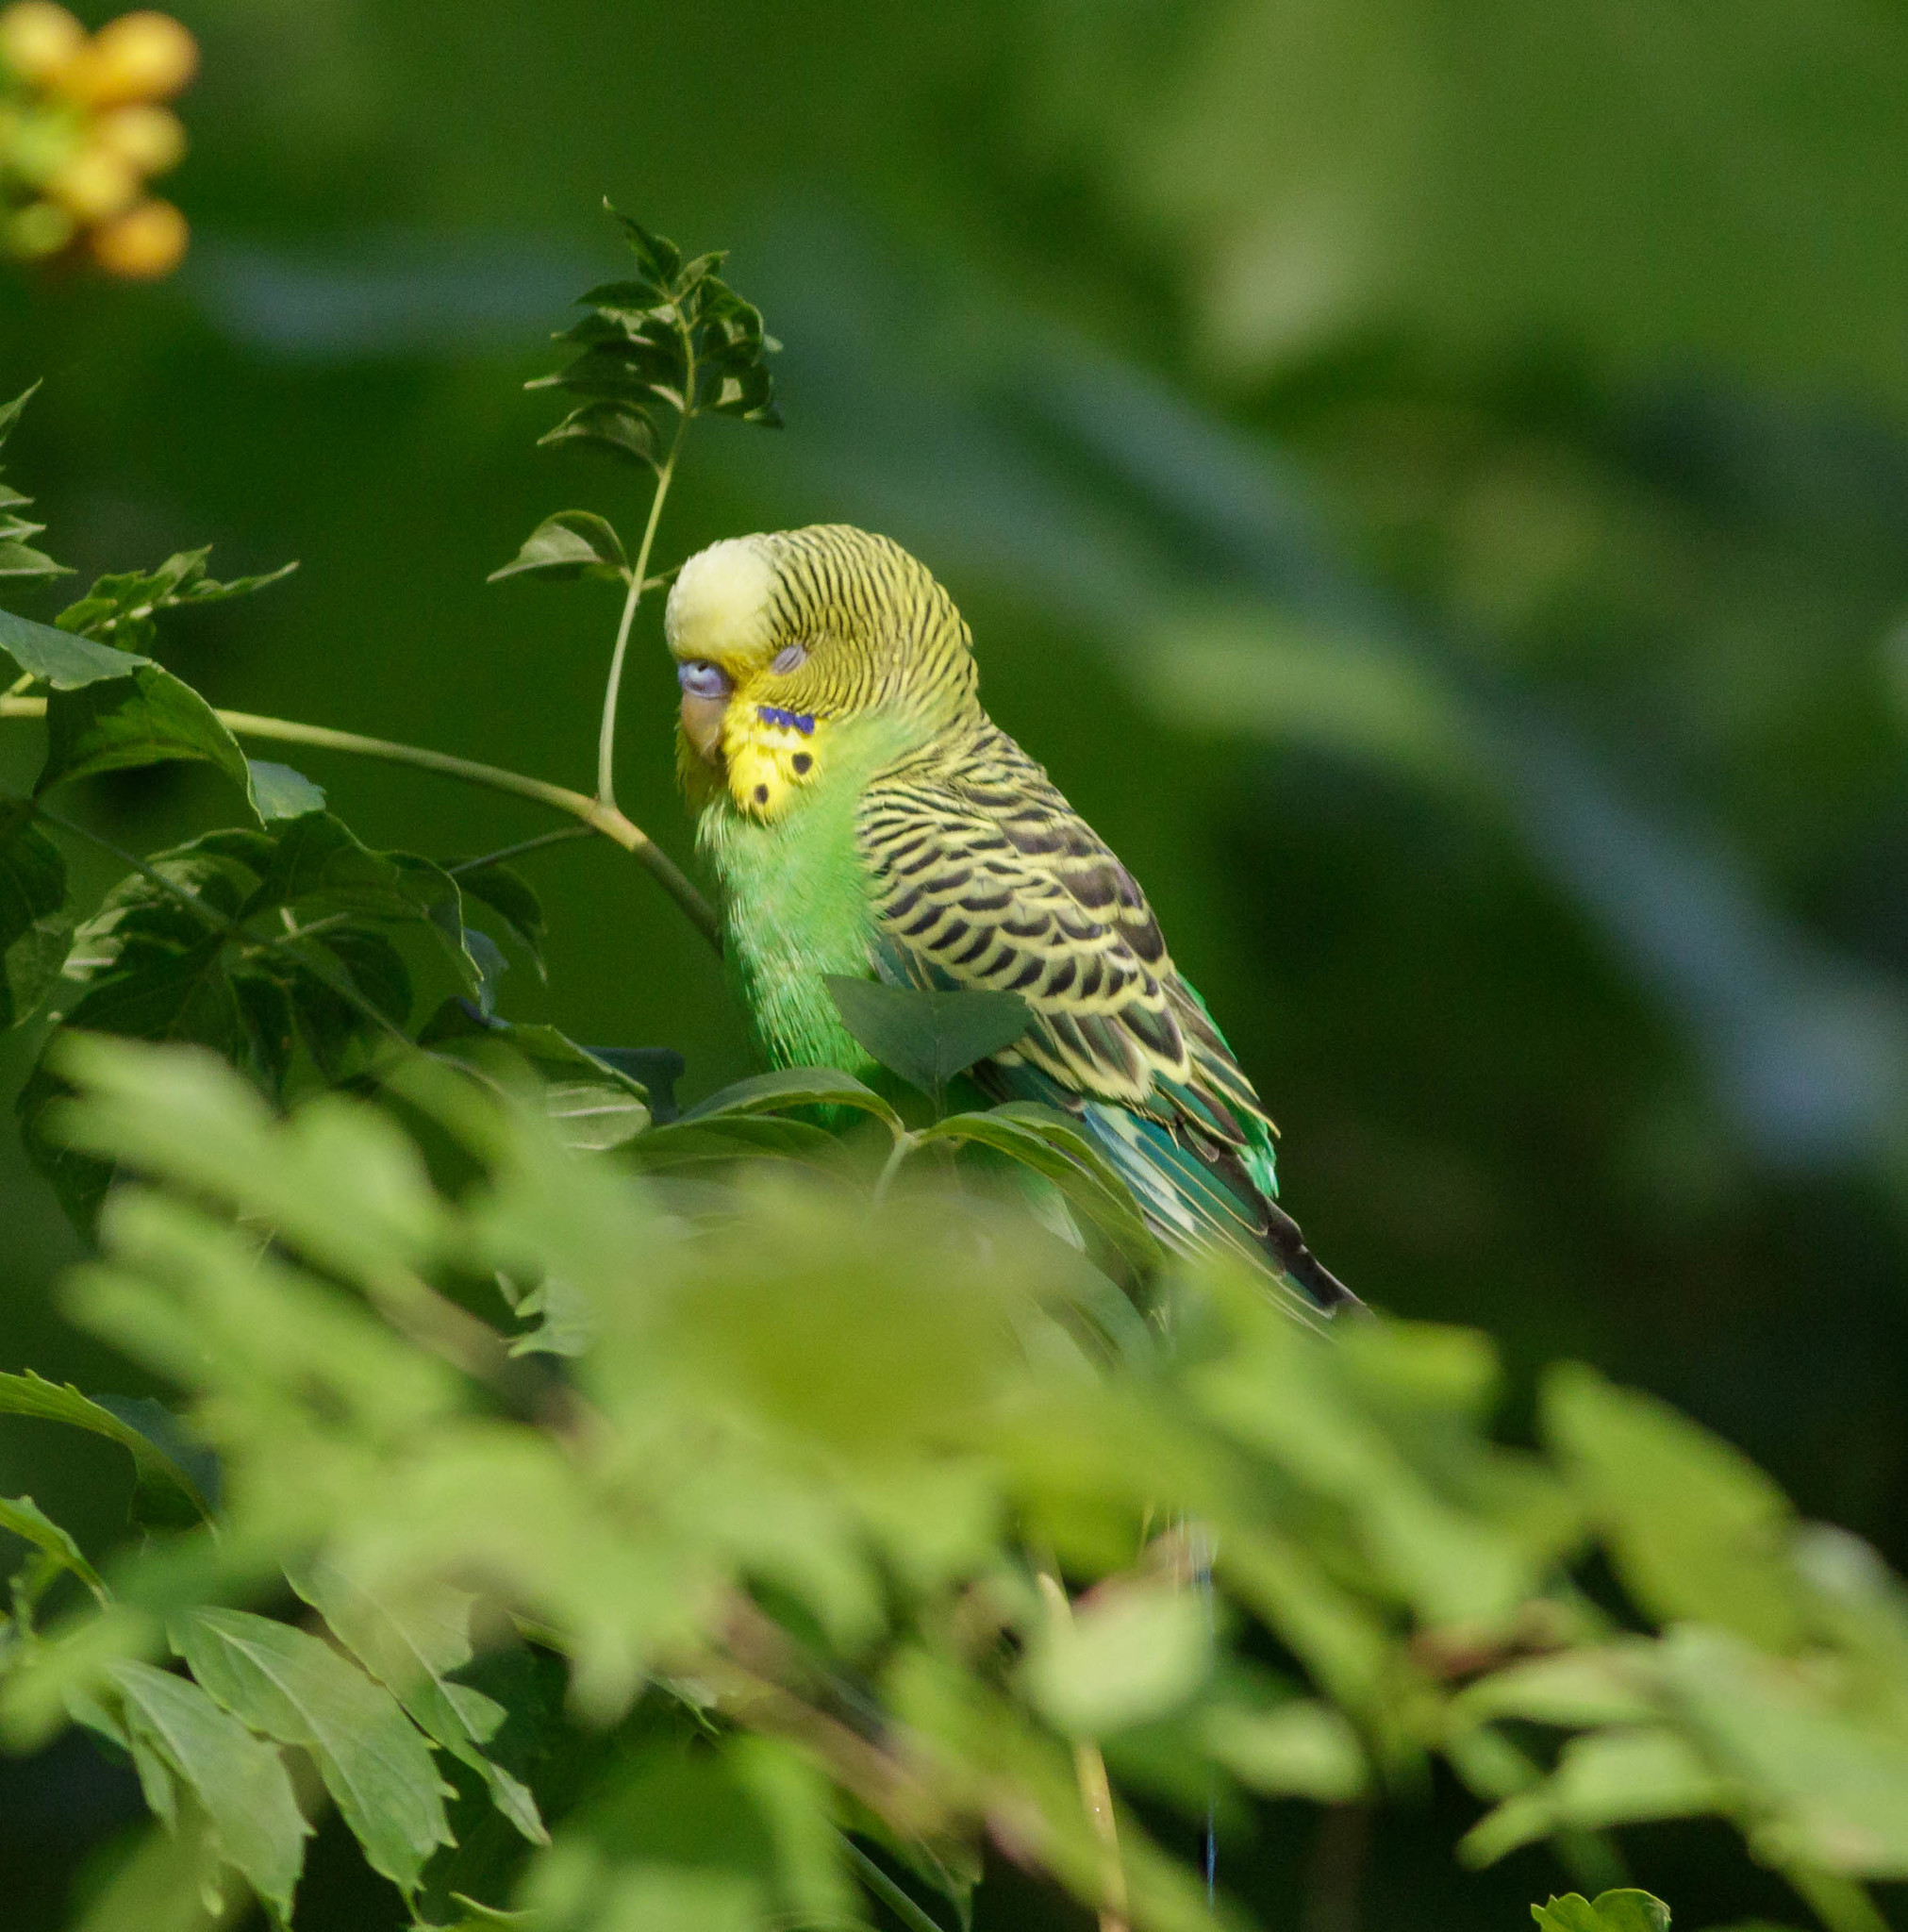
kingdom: Animalia
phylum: Chordata
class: Aves
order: Psittaciformes
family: Psittacidae
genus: Melopsittacus
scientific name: Melopsittacus undulatus
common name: Budgerigar
